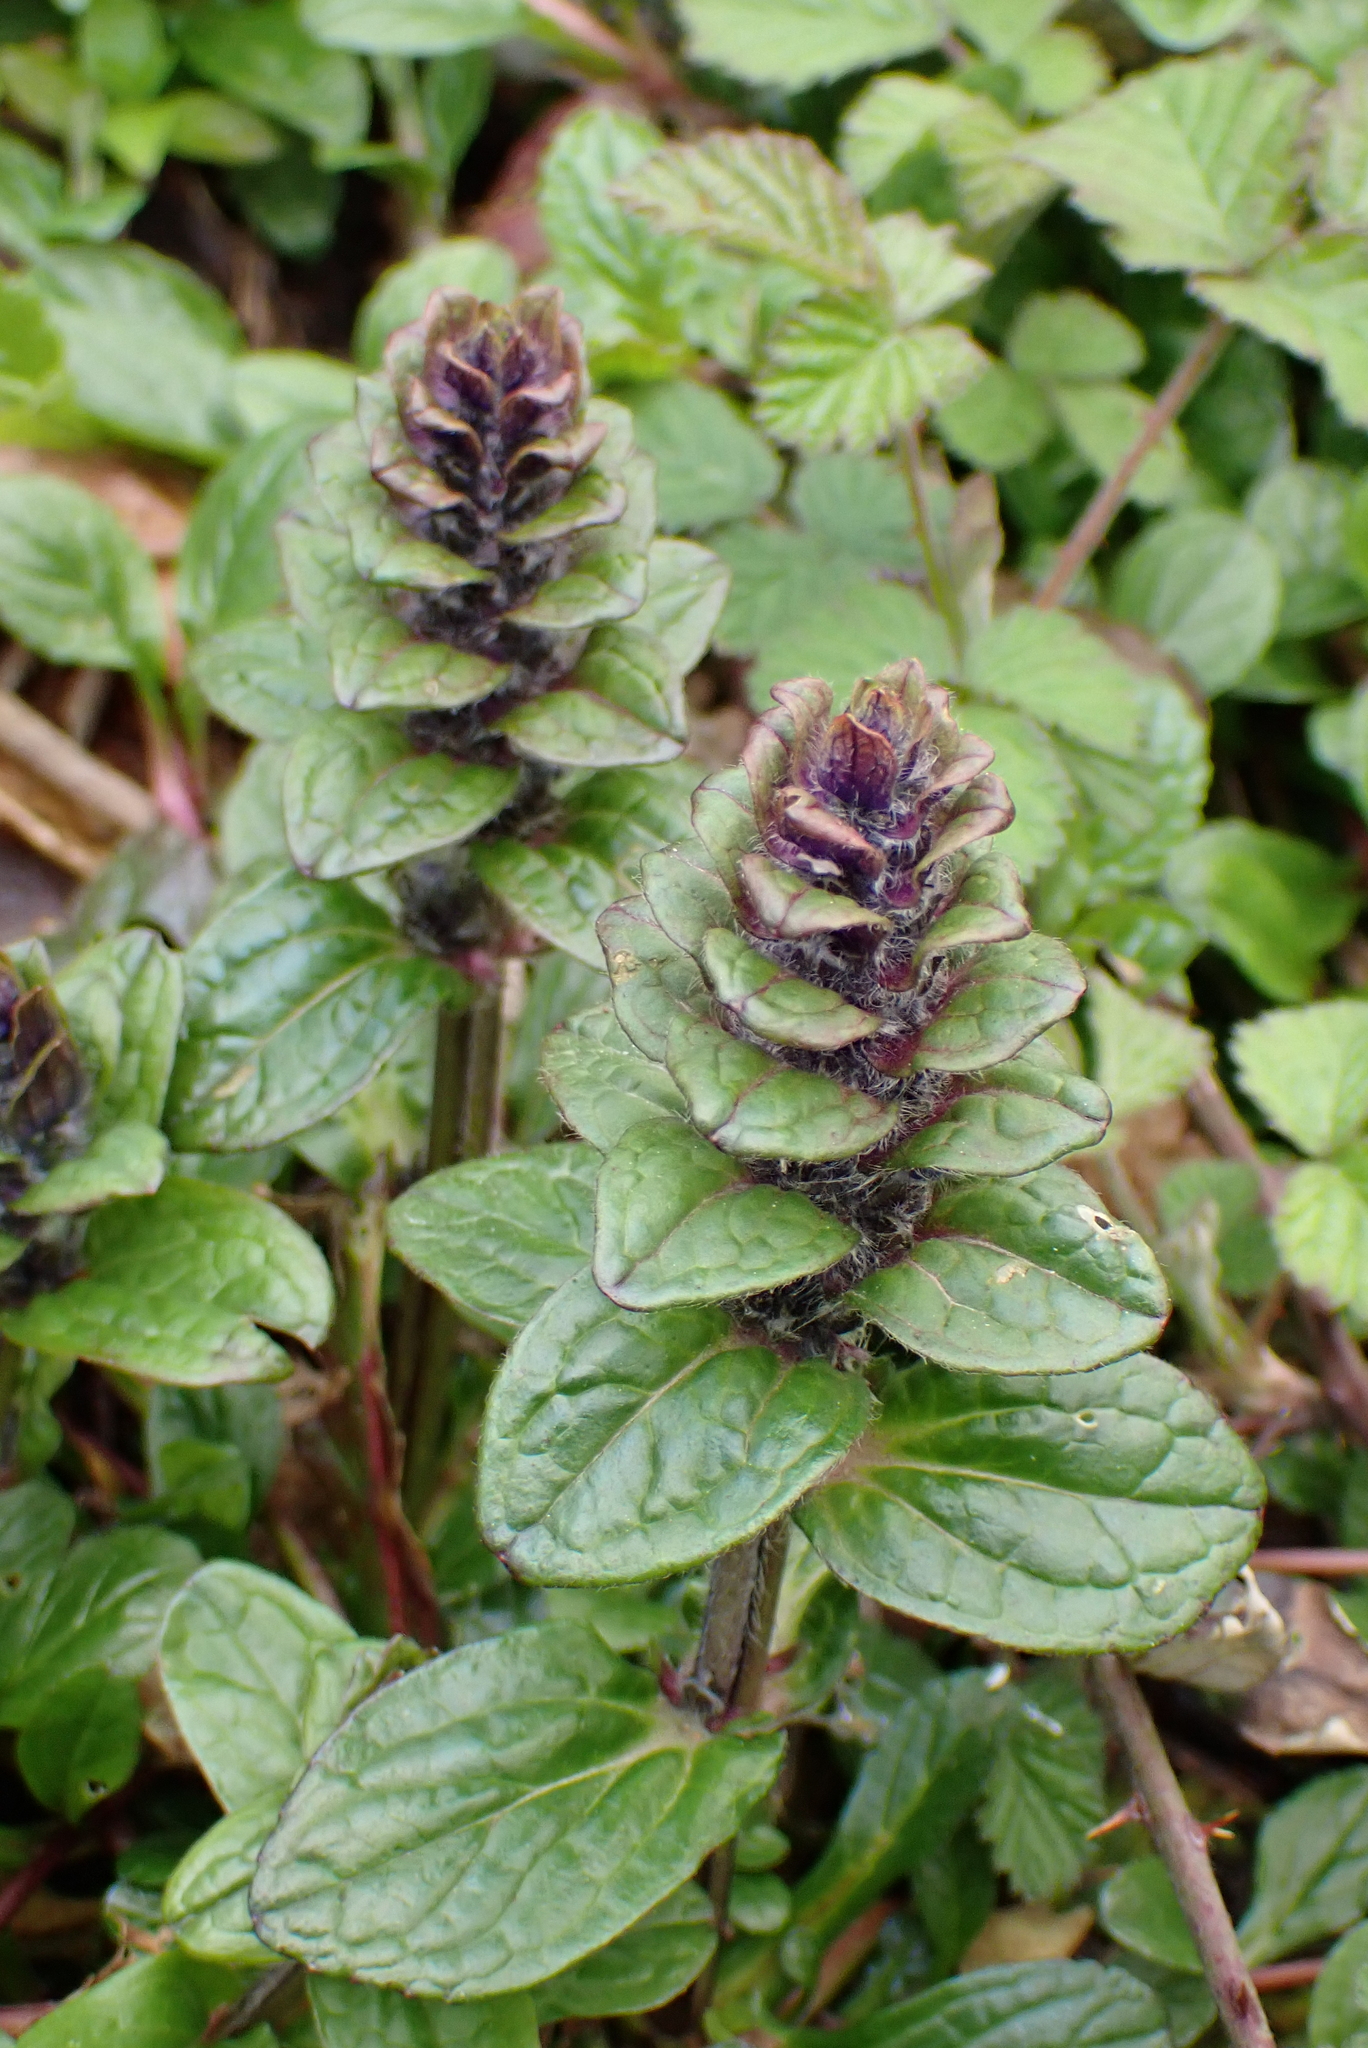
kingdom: Plantae
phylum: Tracheophyta
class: Magnoliopsida
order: Lamiales
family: Lamiaceae
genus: Ajuga
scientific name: Ajuga reptans
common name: Bugle
